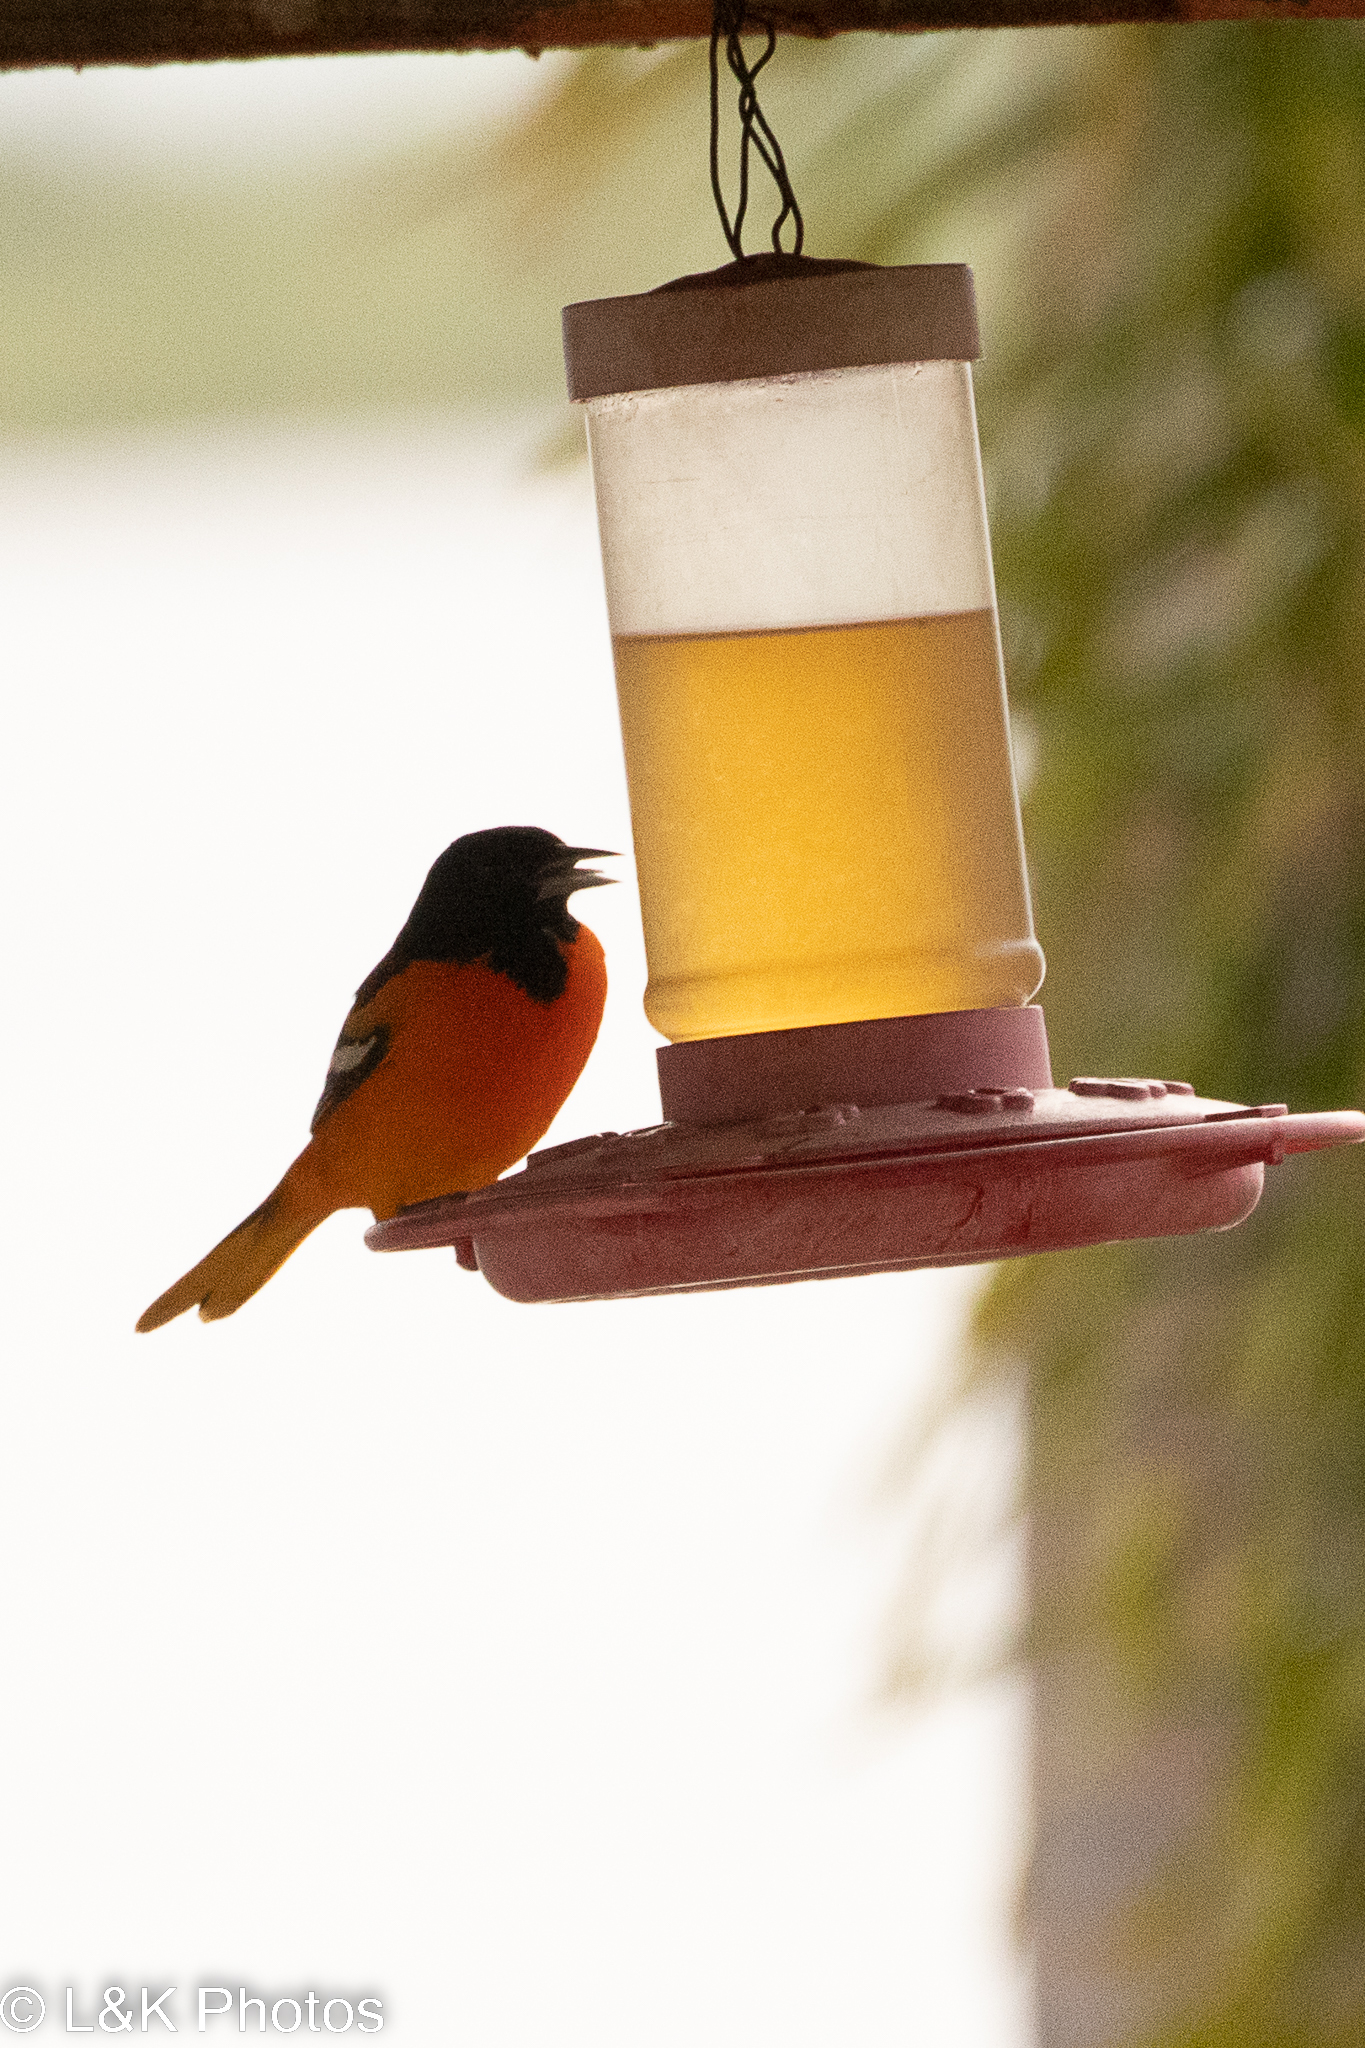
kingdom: Animalia
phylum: Chordata
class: Aves
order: Passeriformes
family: Icteridae
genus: Icterus
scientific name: Icterus galbula
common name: Baltimore oriole
